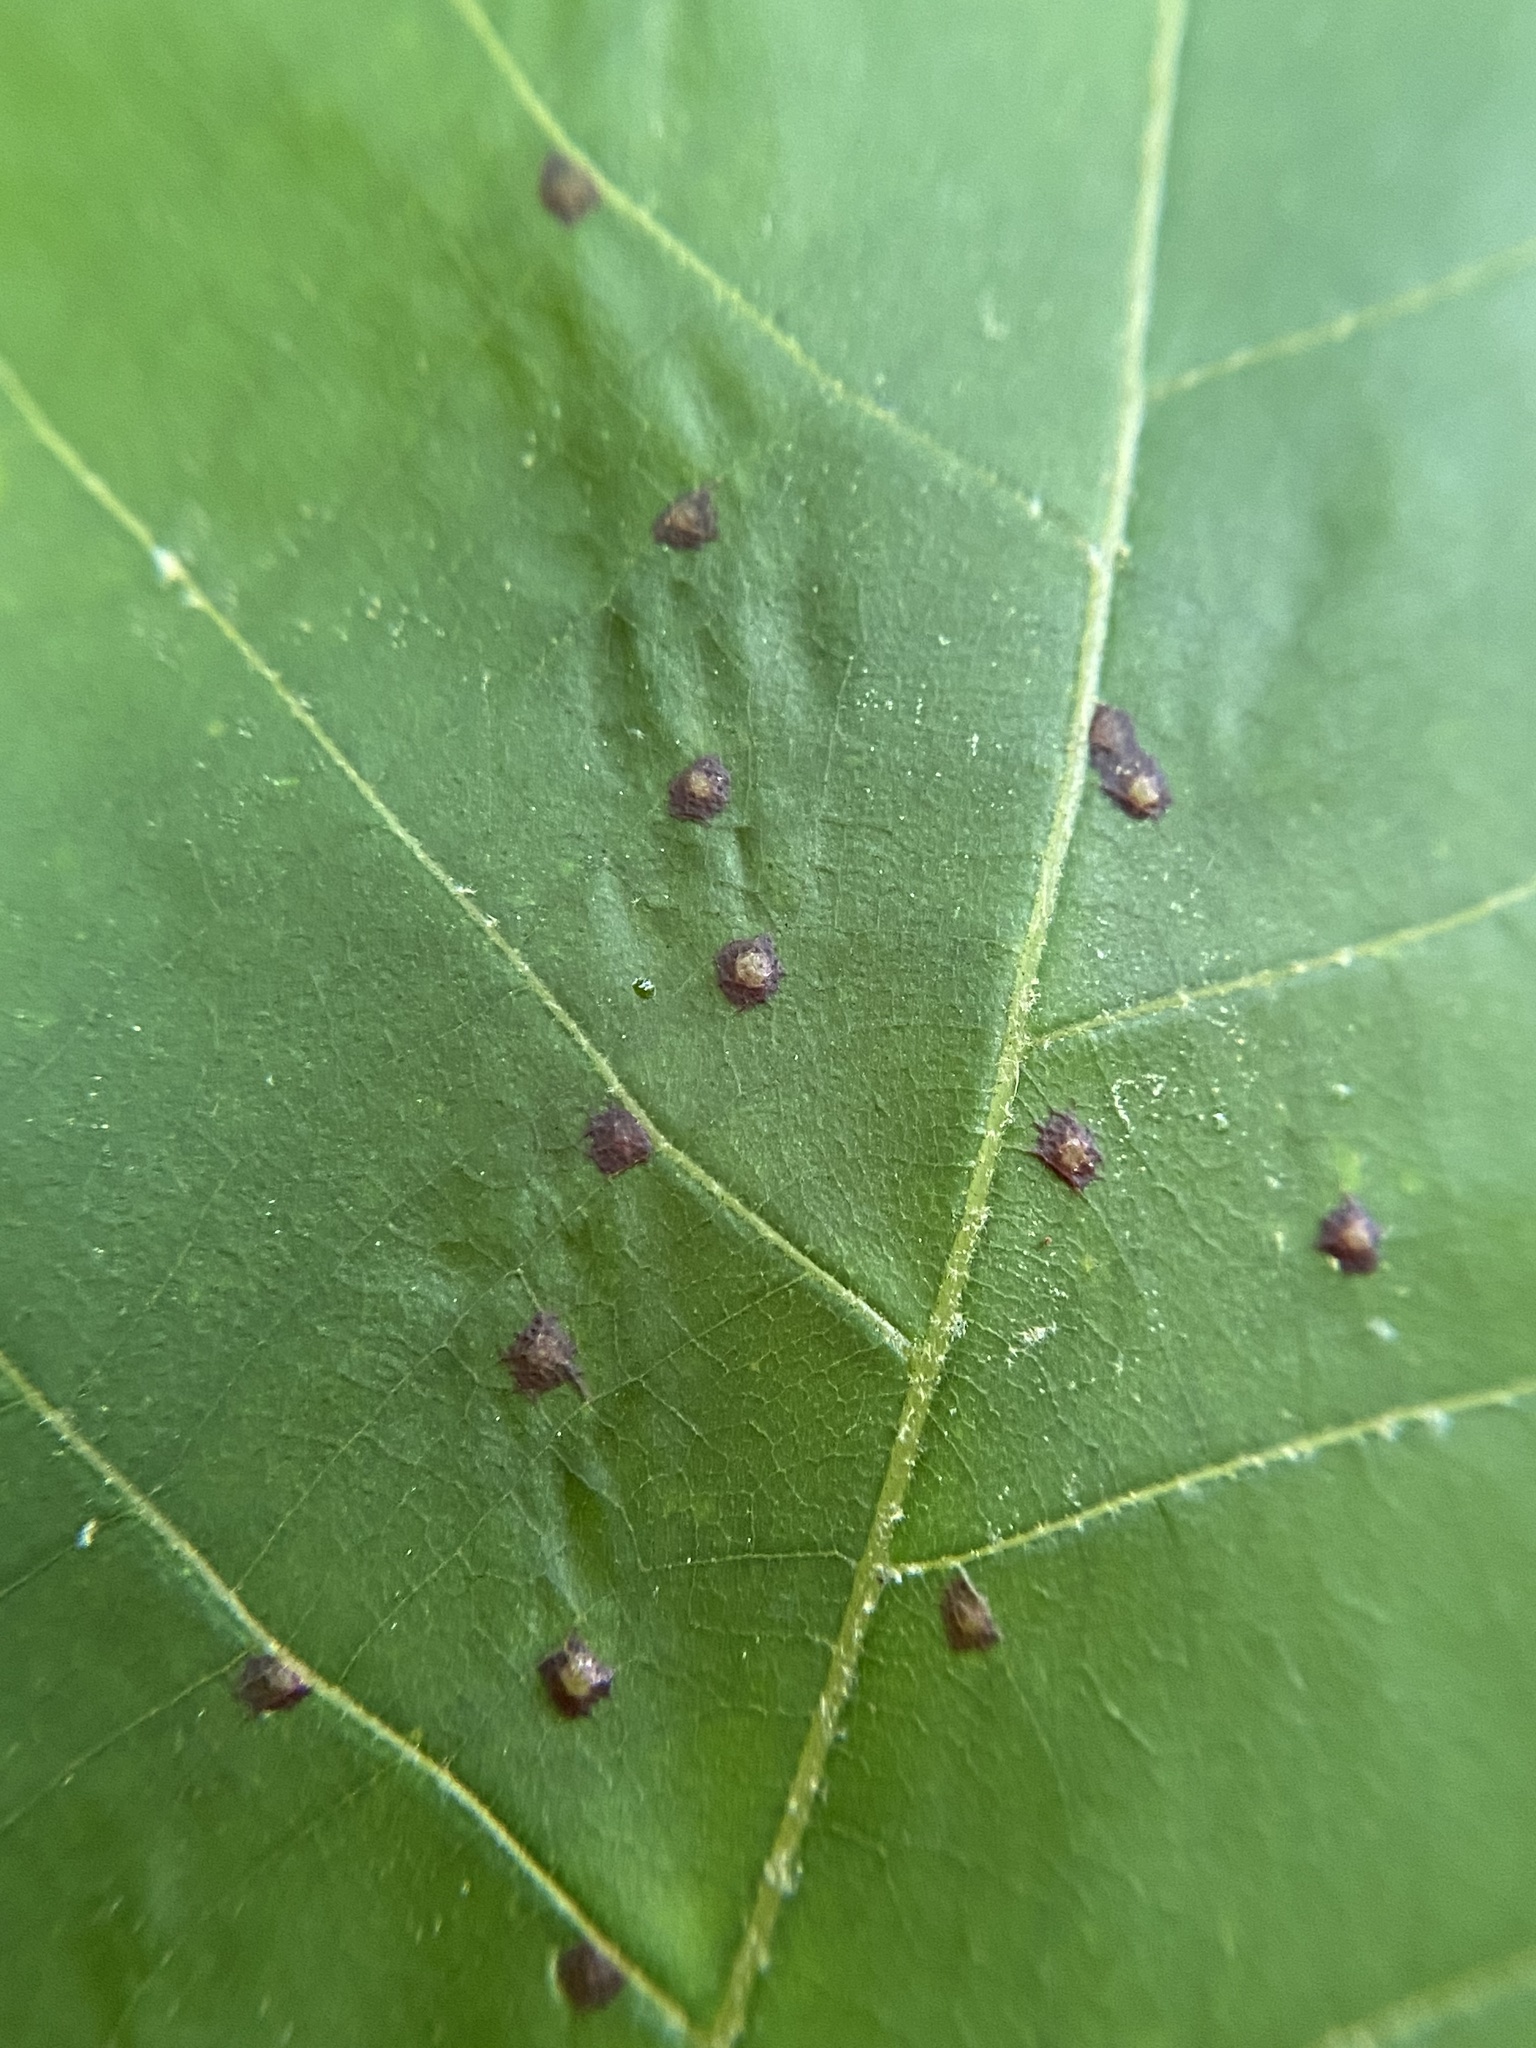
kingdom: Animalia
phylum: Arthropoda
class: Insecta
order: Diptera
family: Cecidomyiidae
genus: Caryadiplosis
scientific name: Caryadiplosis biconvexa
